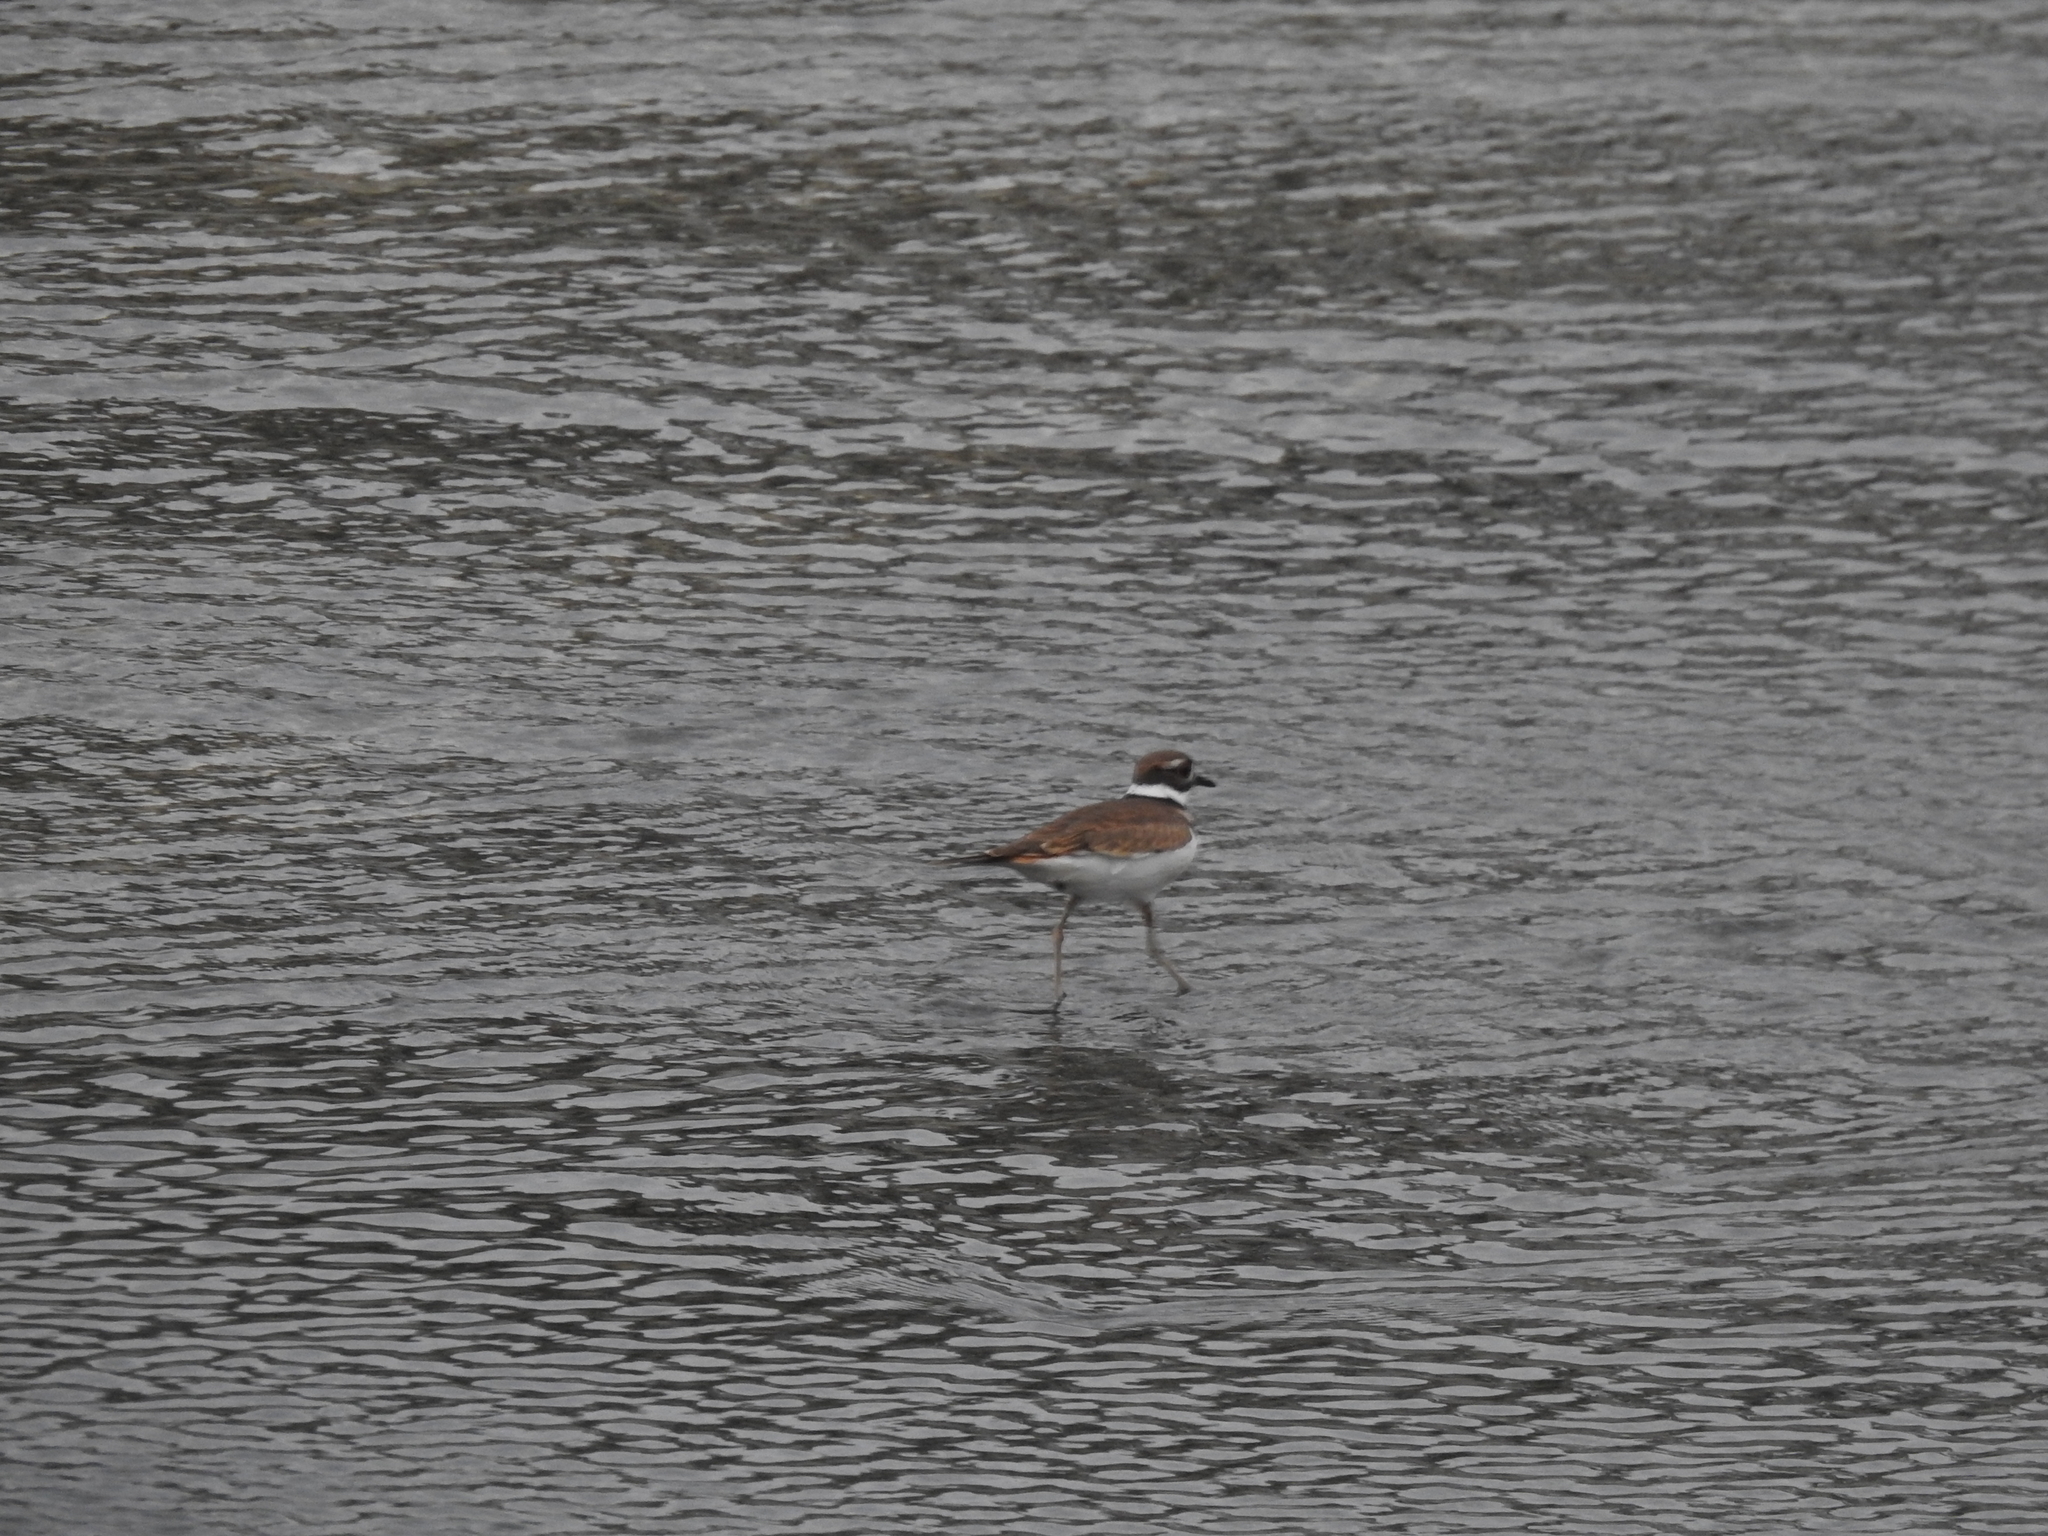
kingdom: Animalia
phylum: Chordata
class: Aves
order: Charadriiformes
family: Charadriidae
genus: Charadrius
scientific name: Charadrius vociferus
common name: Killdeer
